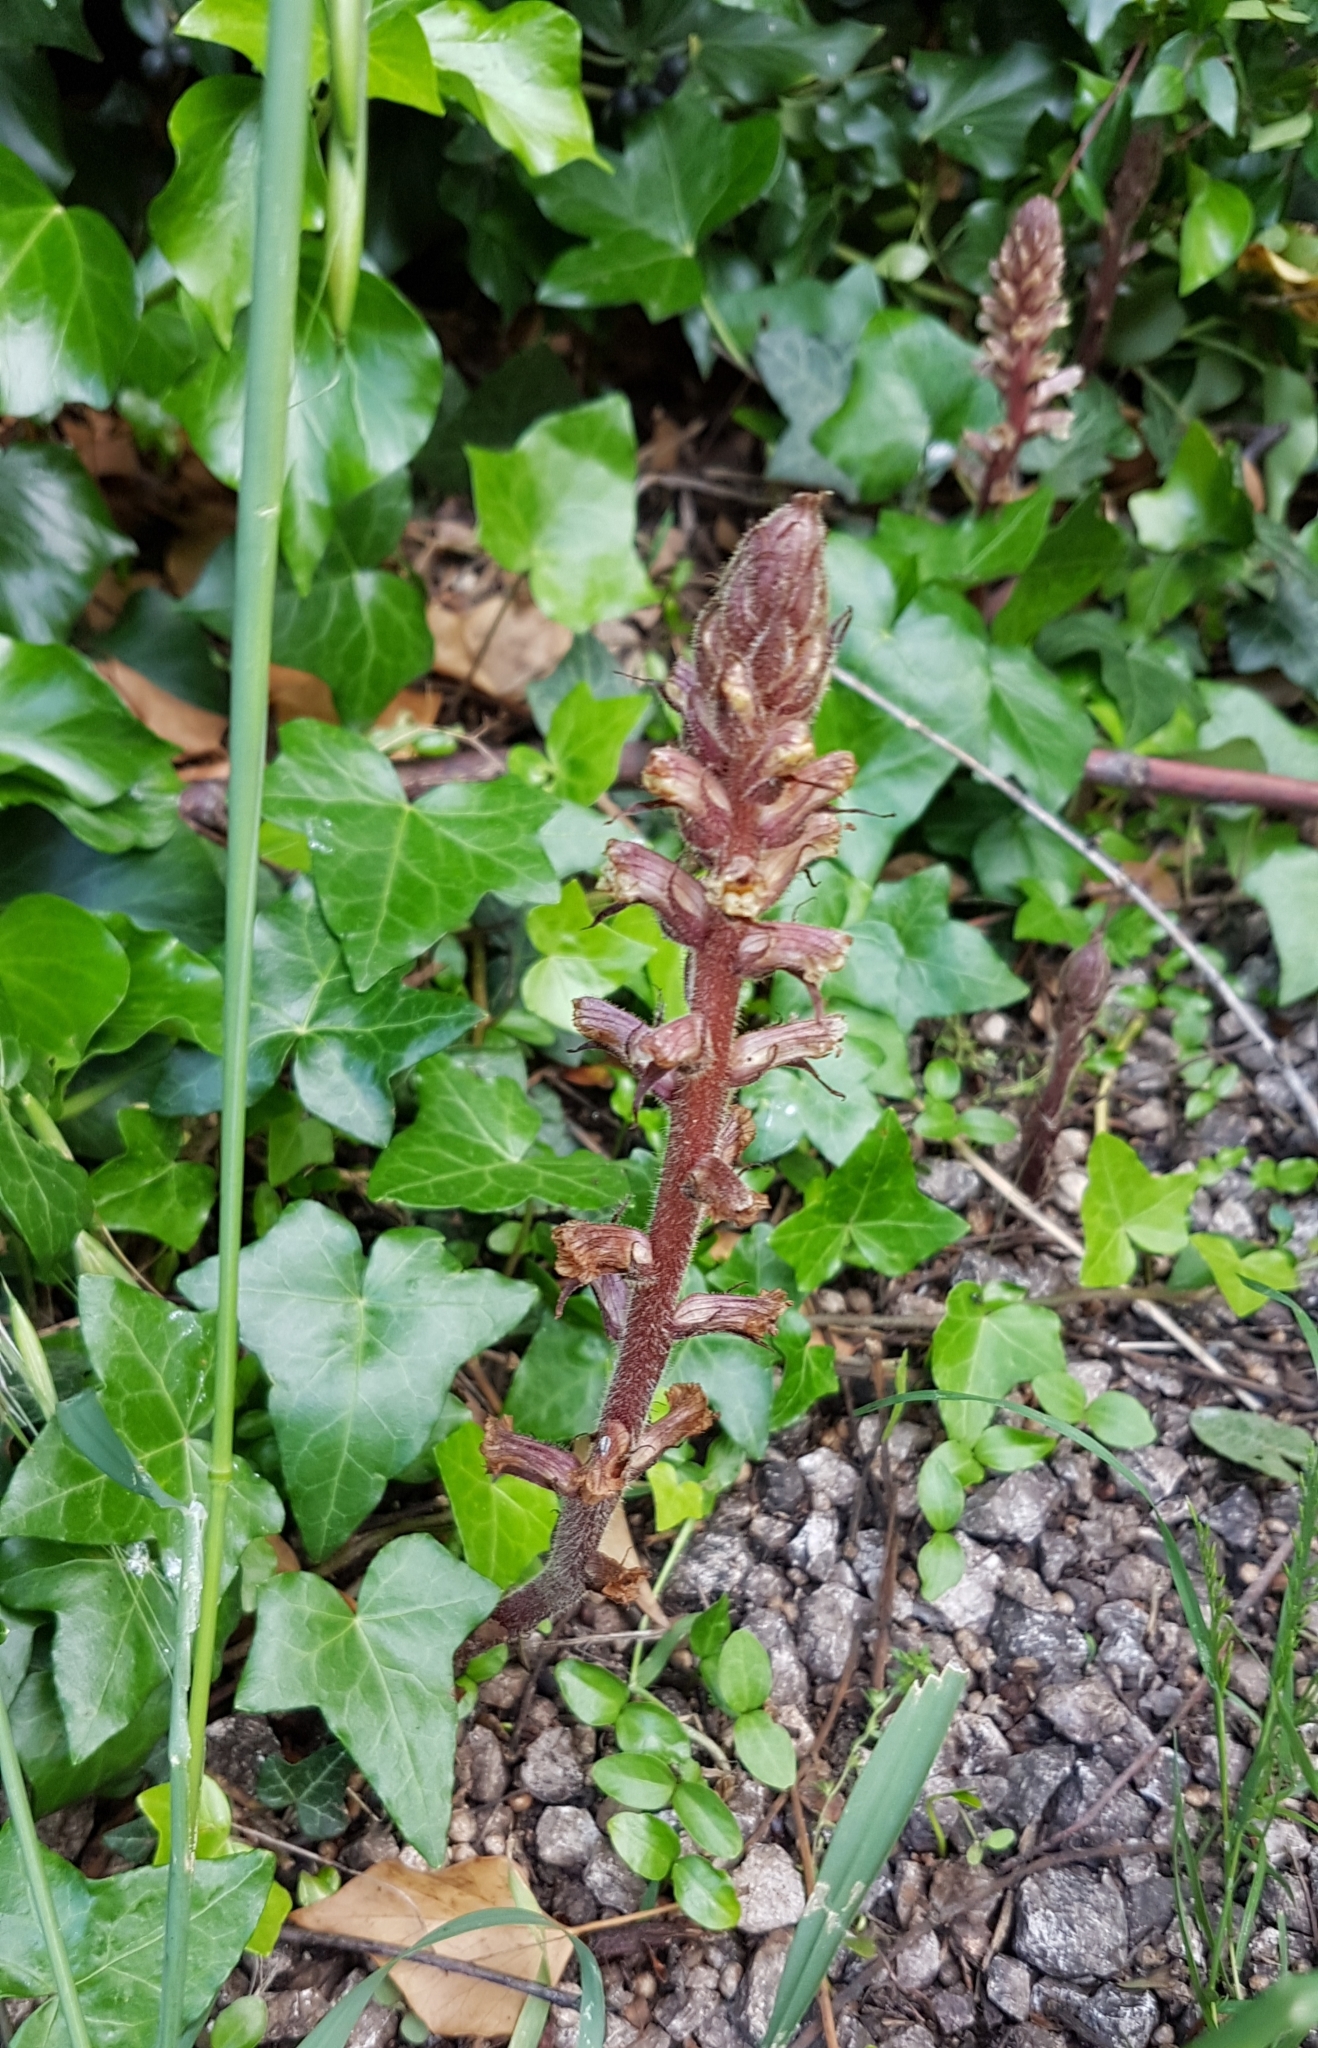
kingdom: Plantae
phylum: Tracheophyta
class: Magnoliopsida
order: Lamiales
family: Orobanchaceae
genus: Orobanche
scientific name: Orobanche hederae
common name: Ivy broomrape
